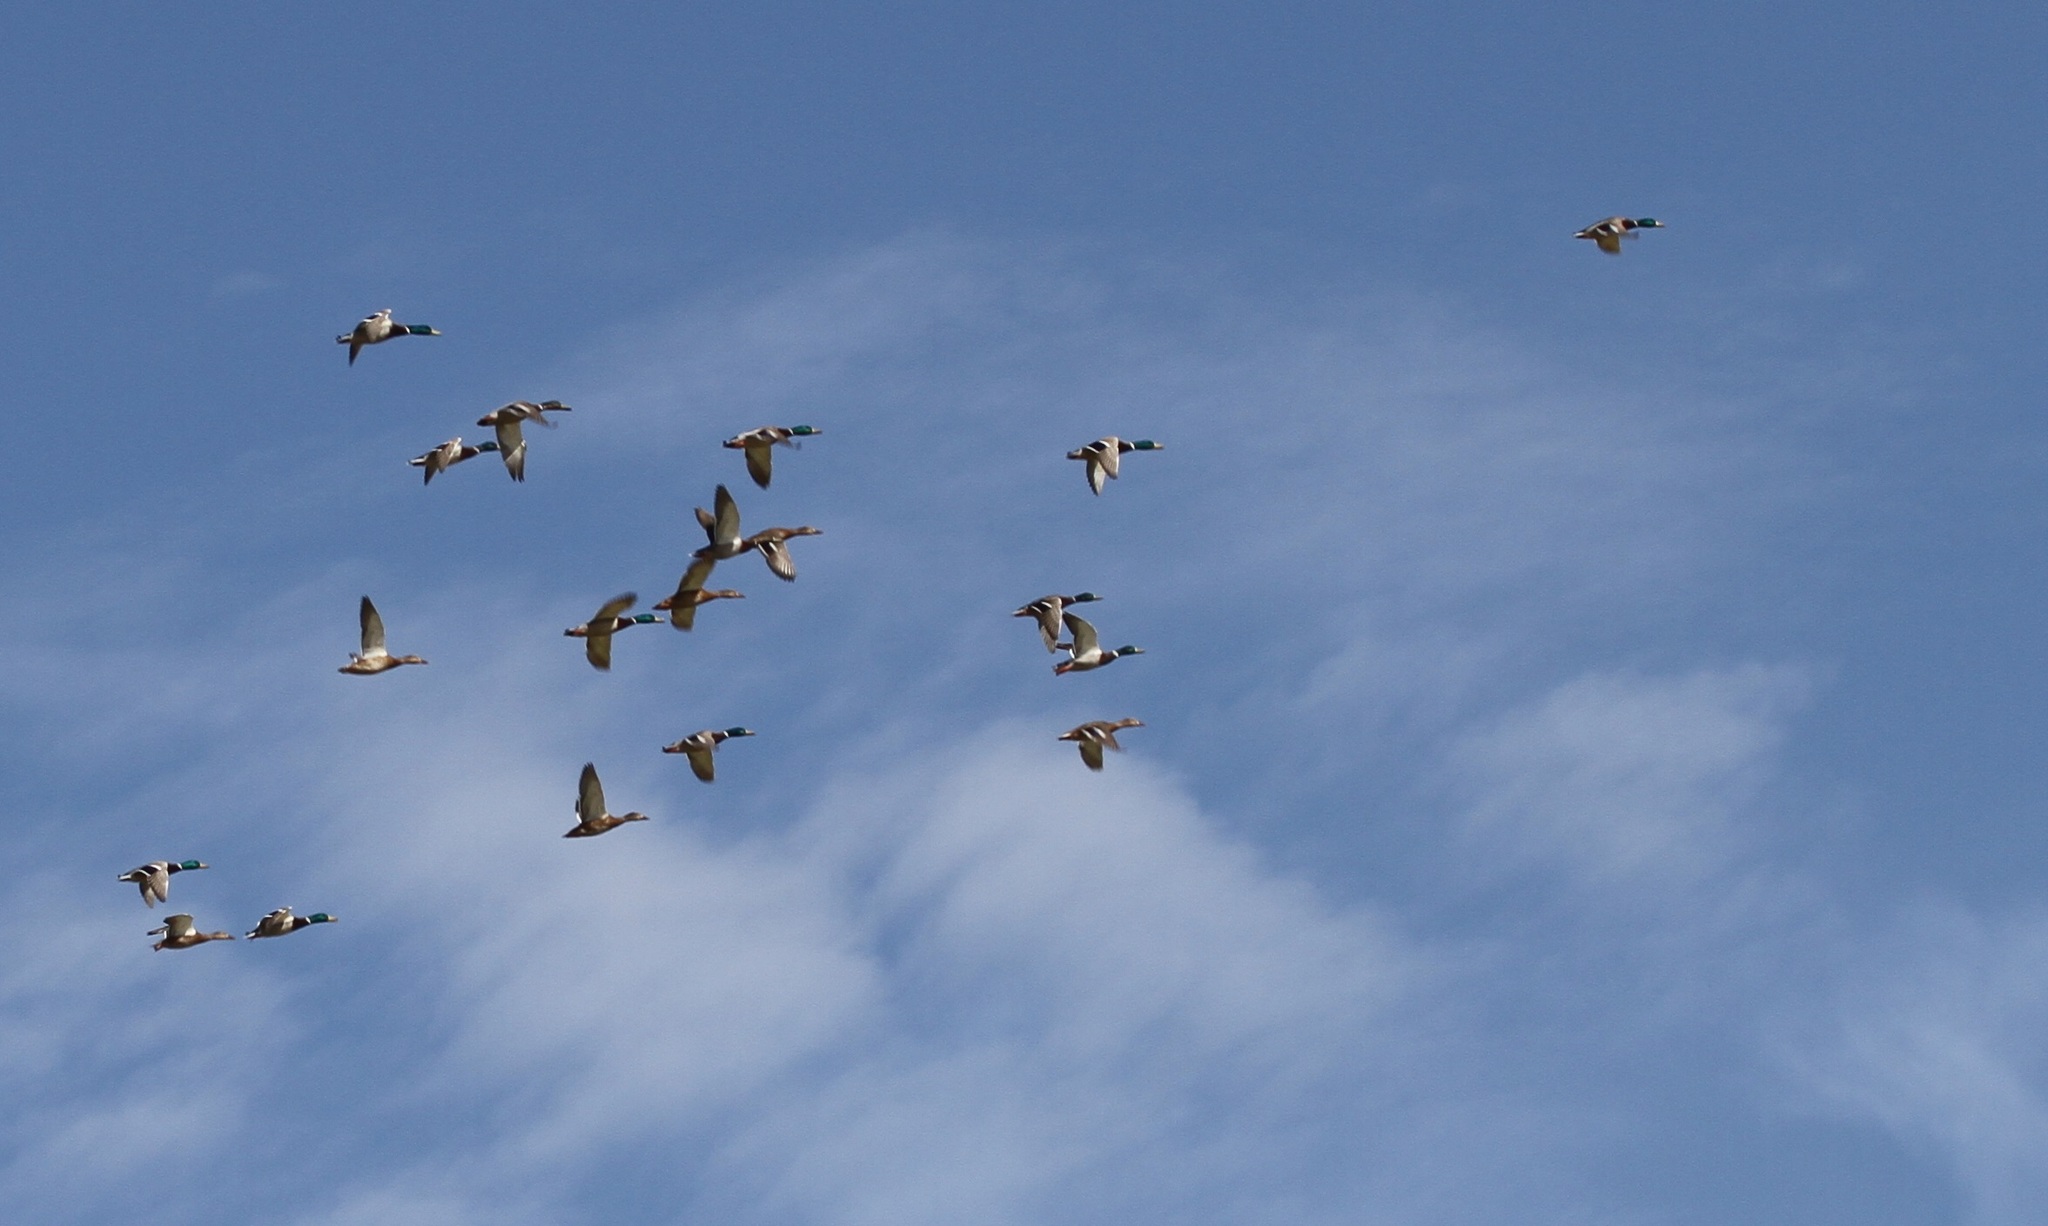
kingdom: Animalia
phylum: Chordata
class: Aves
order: Anseriformes
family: Anatidae
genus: Anas
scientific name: Anas platyrhynchos
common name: Mallard
